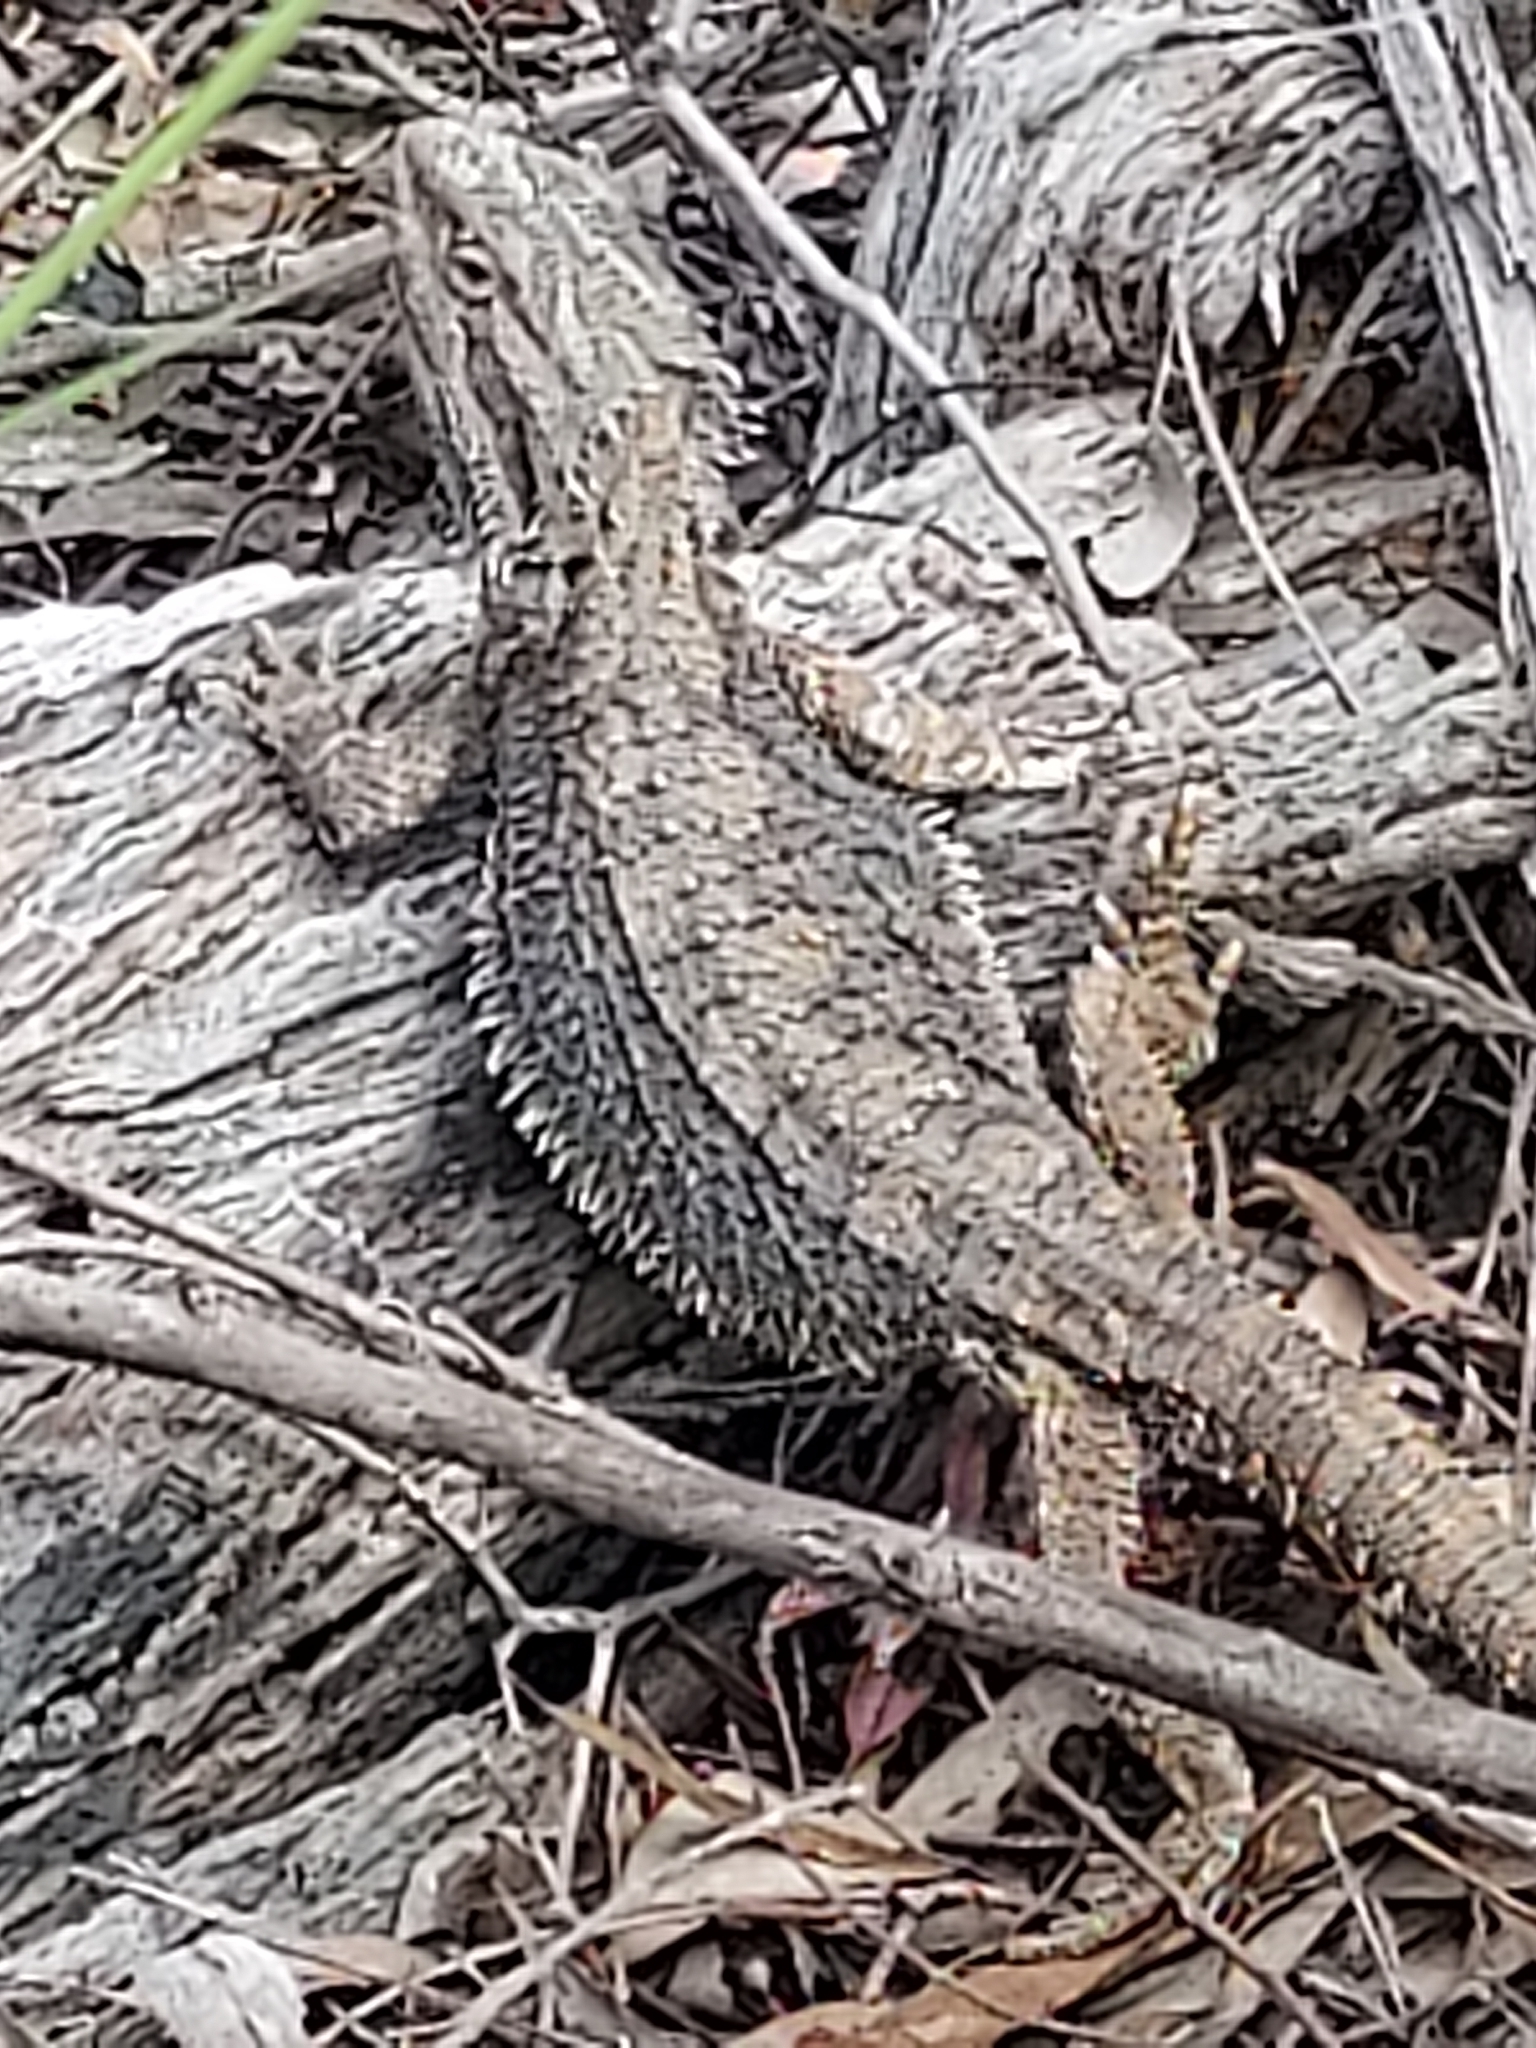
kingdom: Animalia
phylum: Chordata
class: Squamata
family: Agamidae
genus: Pogona
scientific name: Pogona barbata
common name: Bearded dragon
